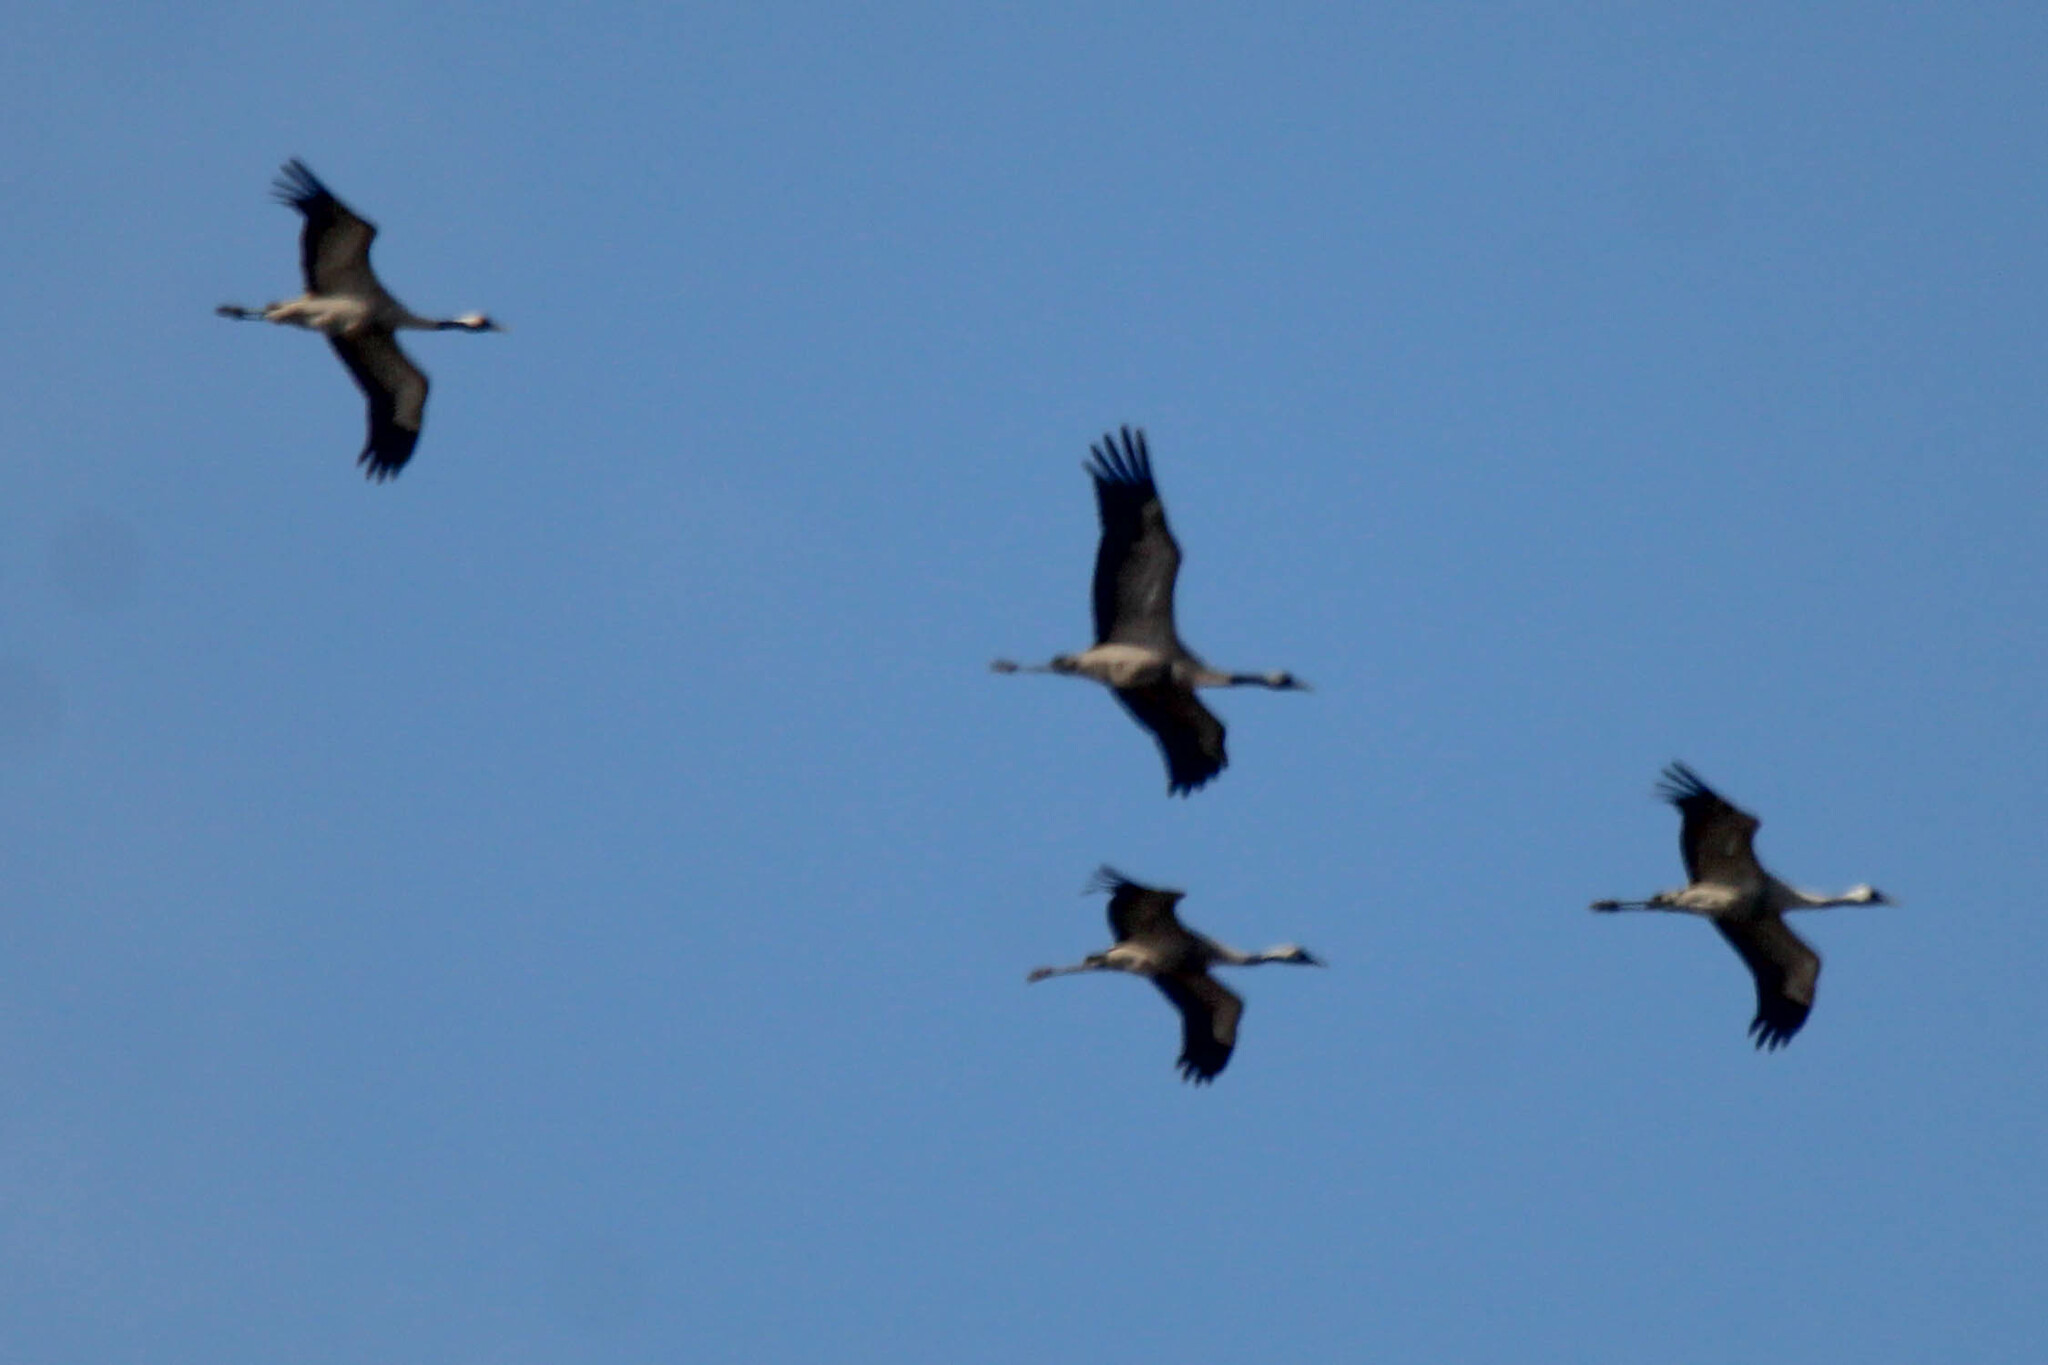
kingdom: Animalia
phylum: Chordata
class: Aves
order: Gruiformes
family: Gruidae
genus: Grus
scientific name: Grus grus
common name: Common crane
